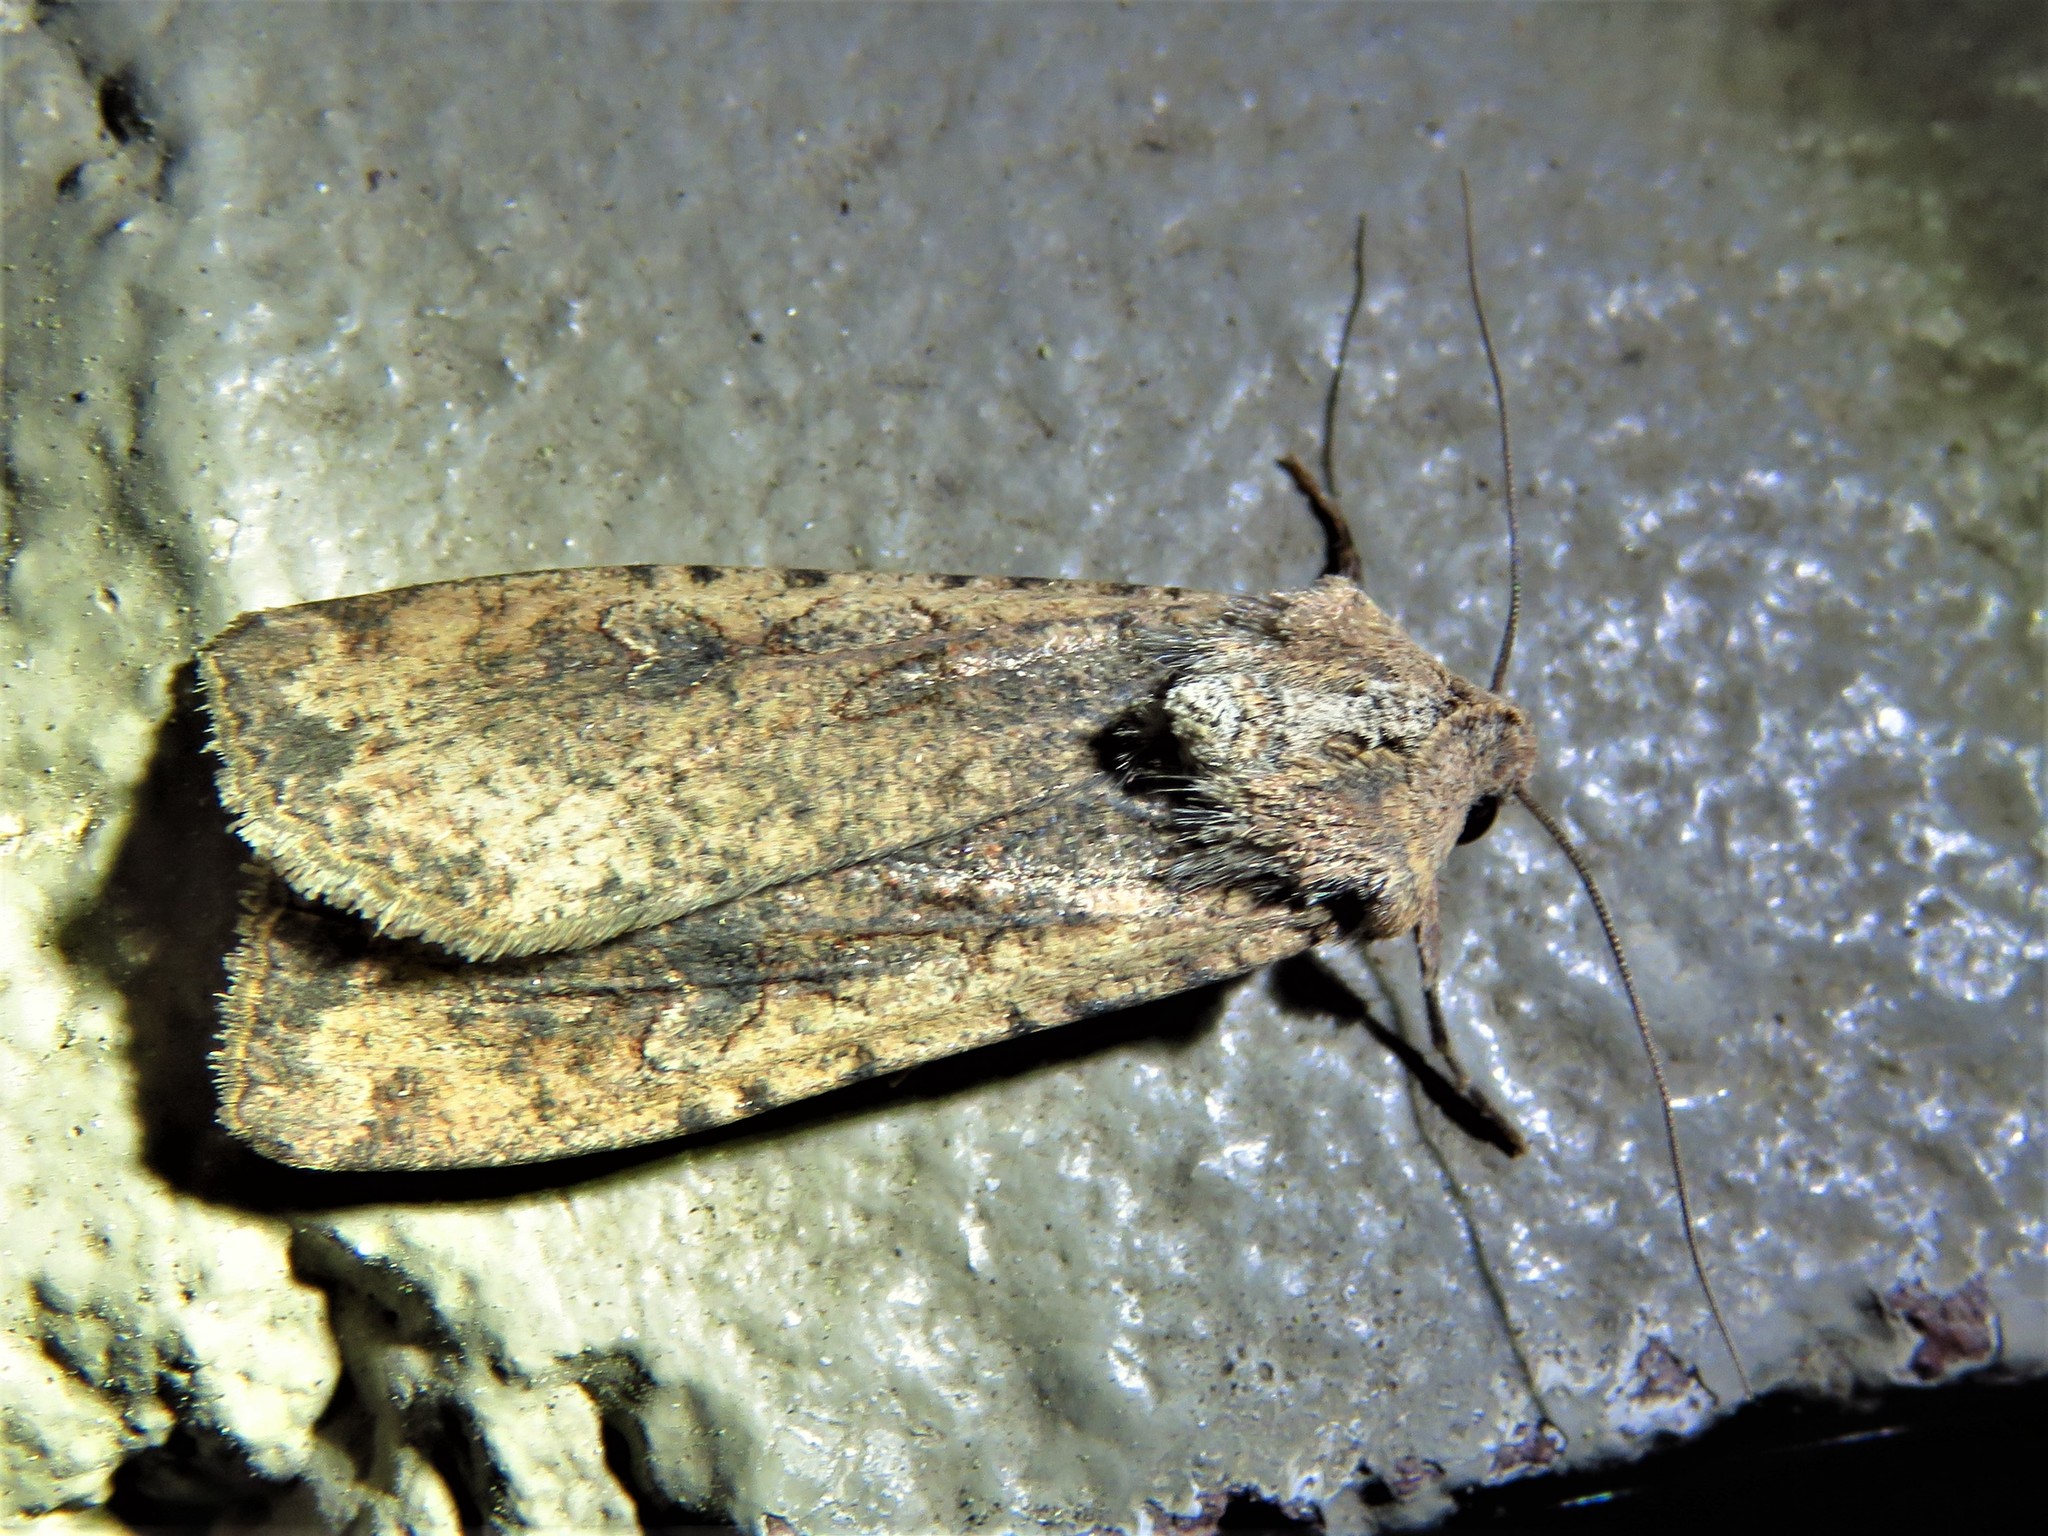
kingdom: Animalia
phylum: Arthropoda
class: Insecta
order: Lepidoptera
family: Noctuidae
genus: Peridroma
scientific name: Peridroma saucia
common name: Pearly underwing
